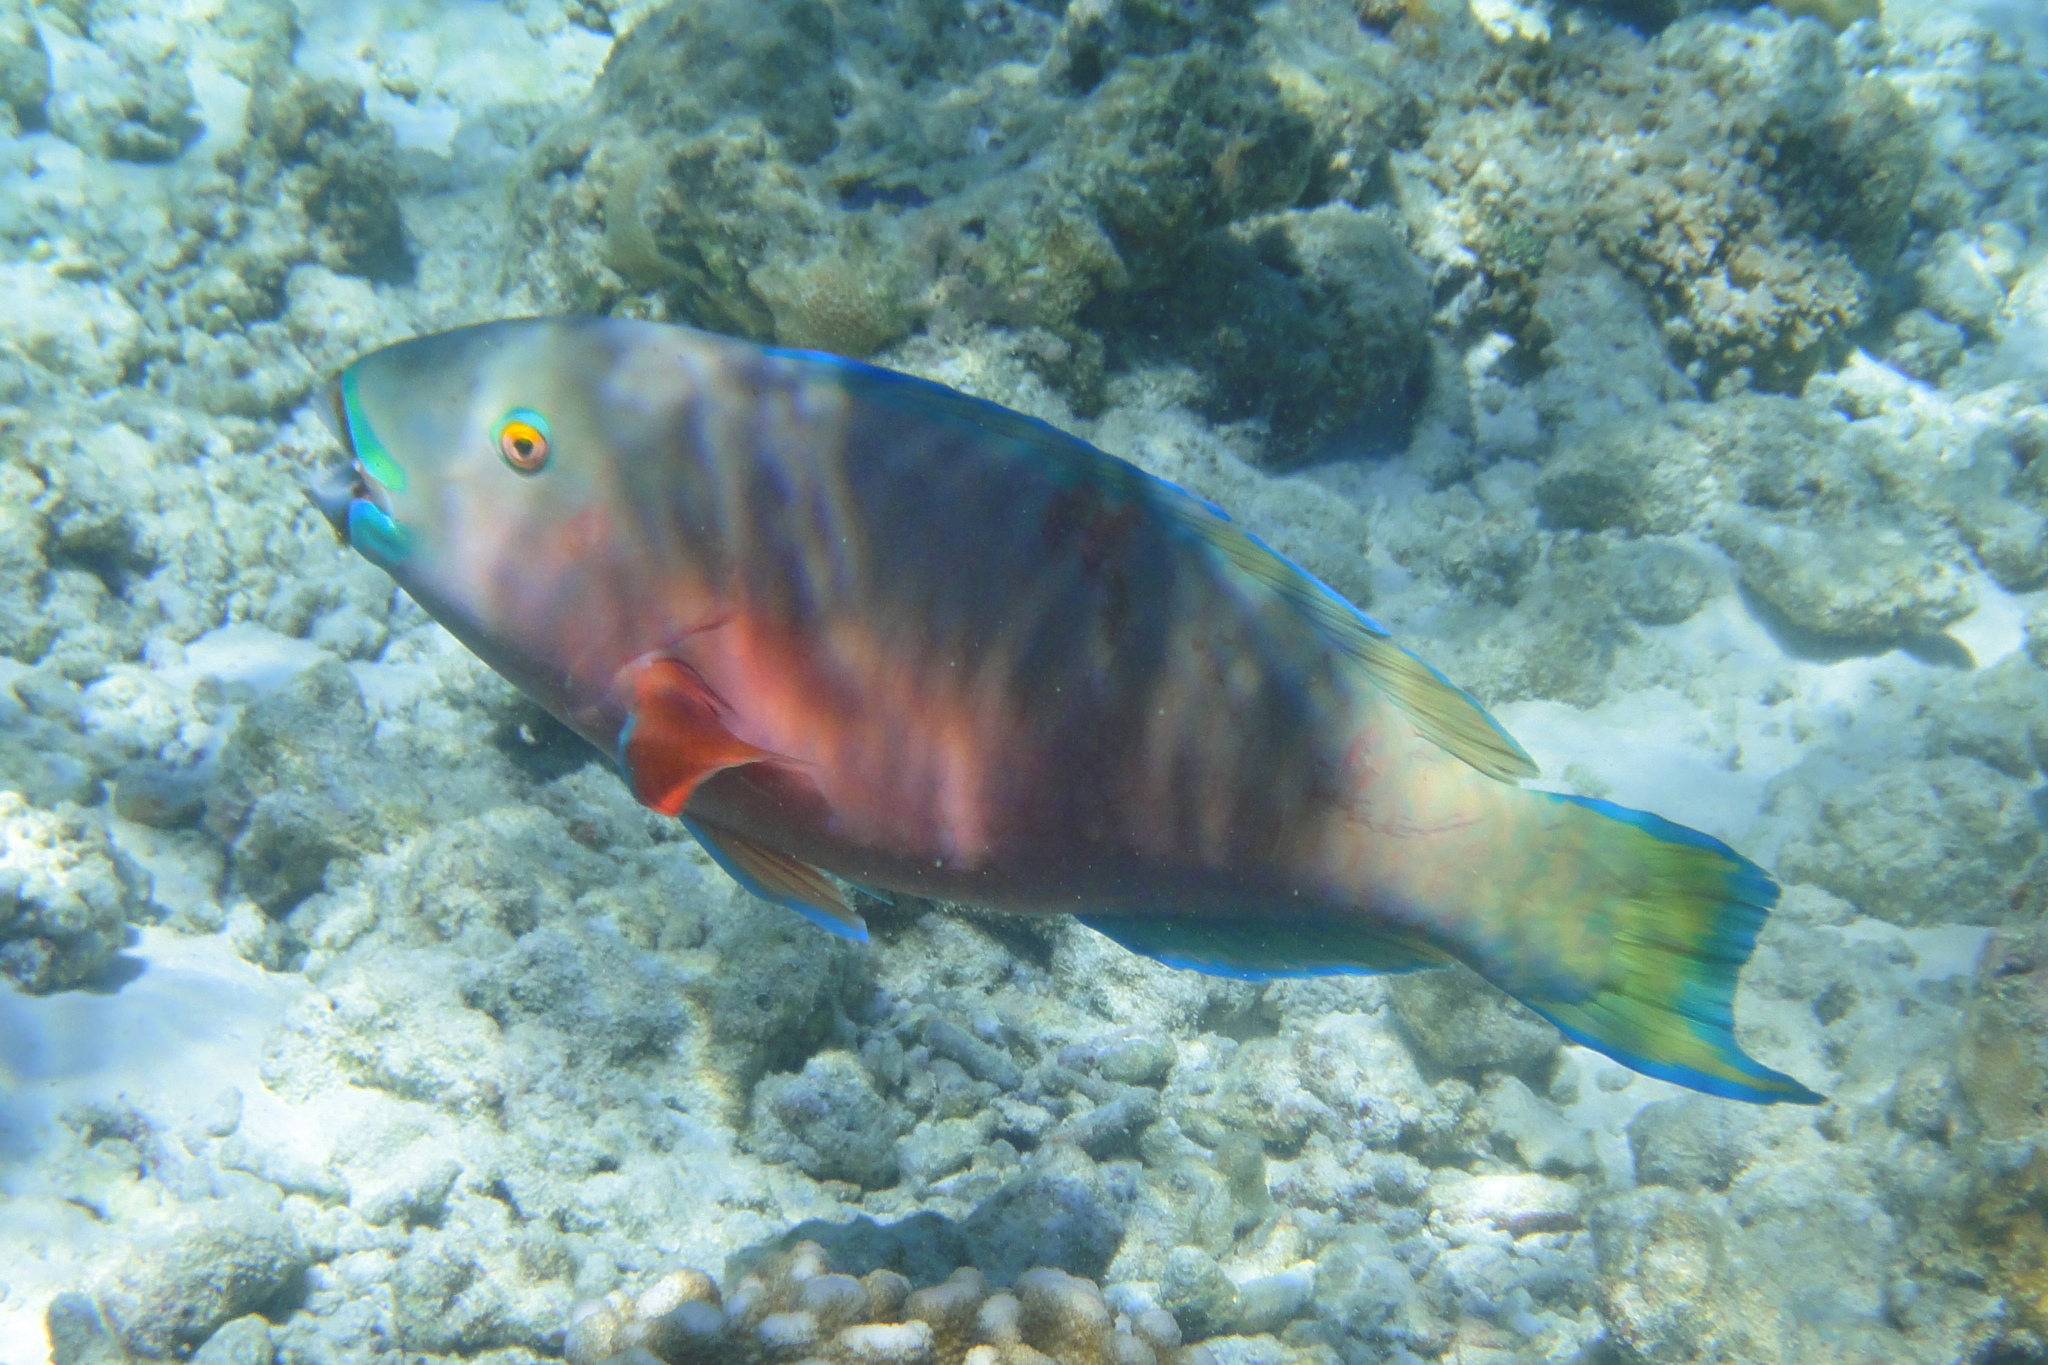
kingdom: Animalia
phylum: Chordata
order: Perciformes
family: Scaridae
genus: Chlorurus
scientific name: Chlorurus strongylocephalus
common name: Steephead parrotfish
